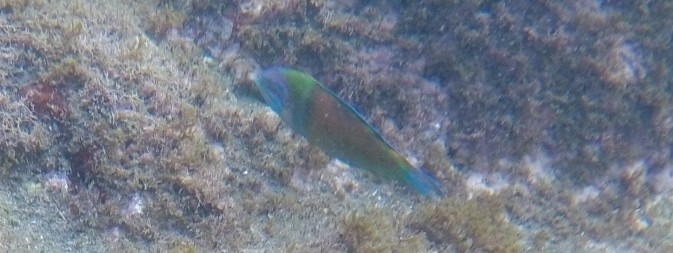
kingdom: Animalia
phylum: Chordata
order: Perciformes
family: Labridae
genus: Thalassoma
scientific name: Thalassoma pavo
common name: Ornate wrasse
